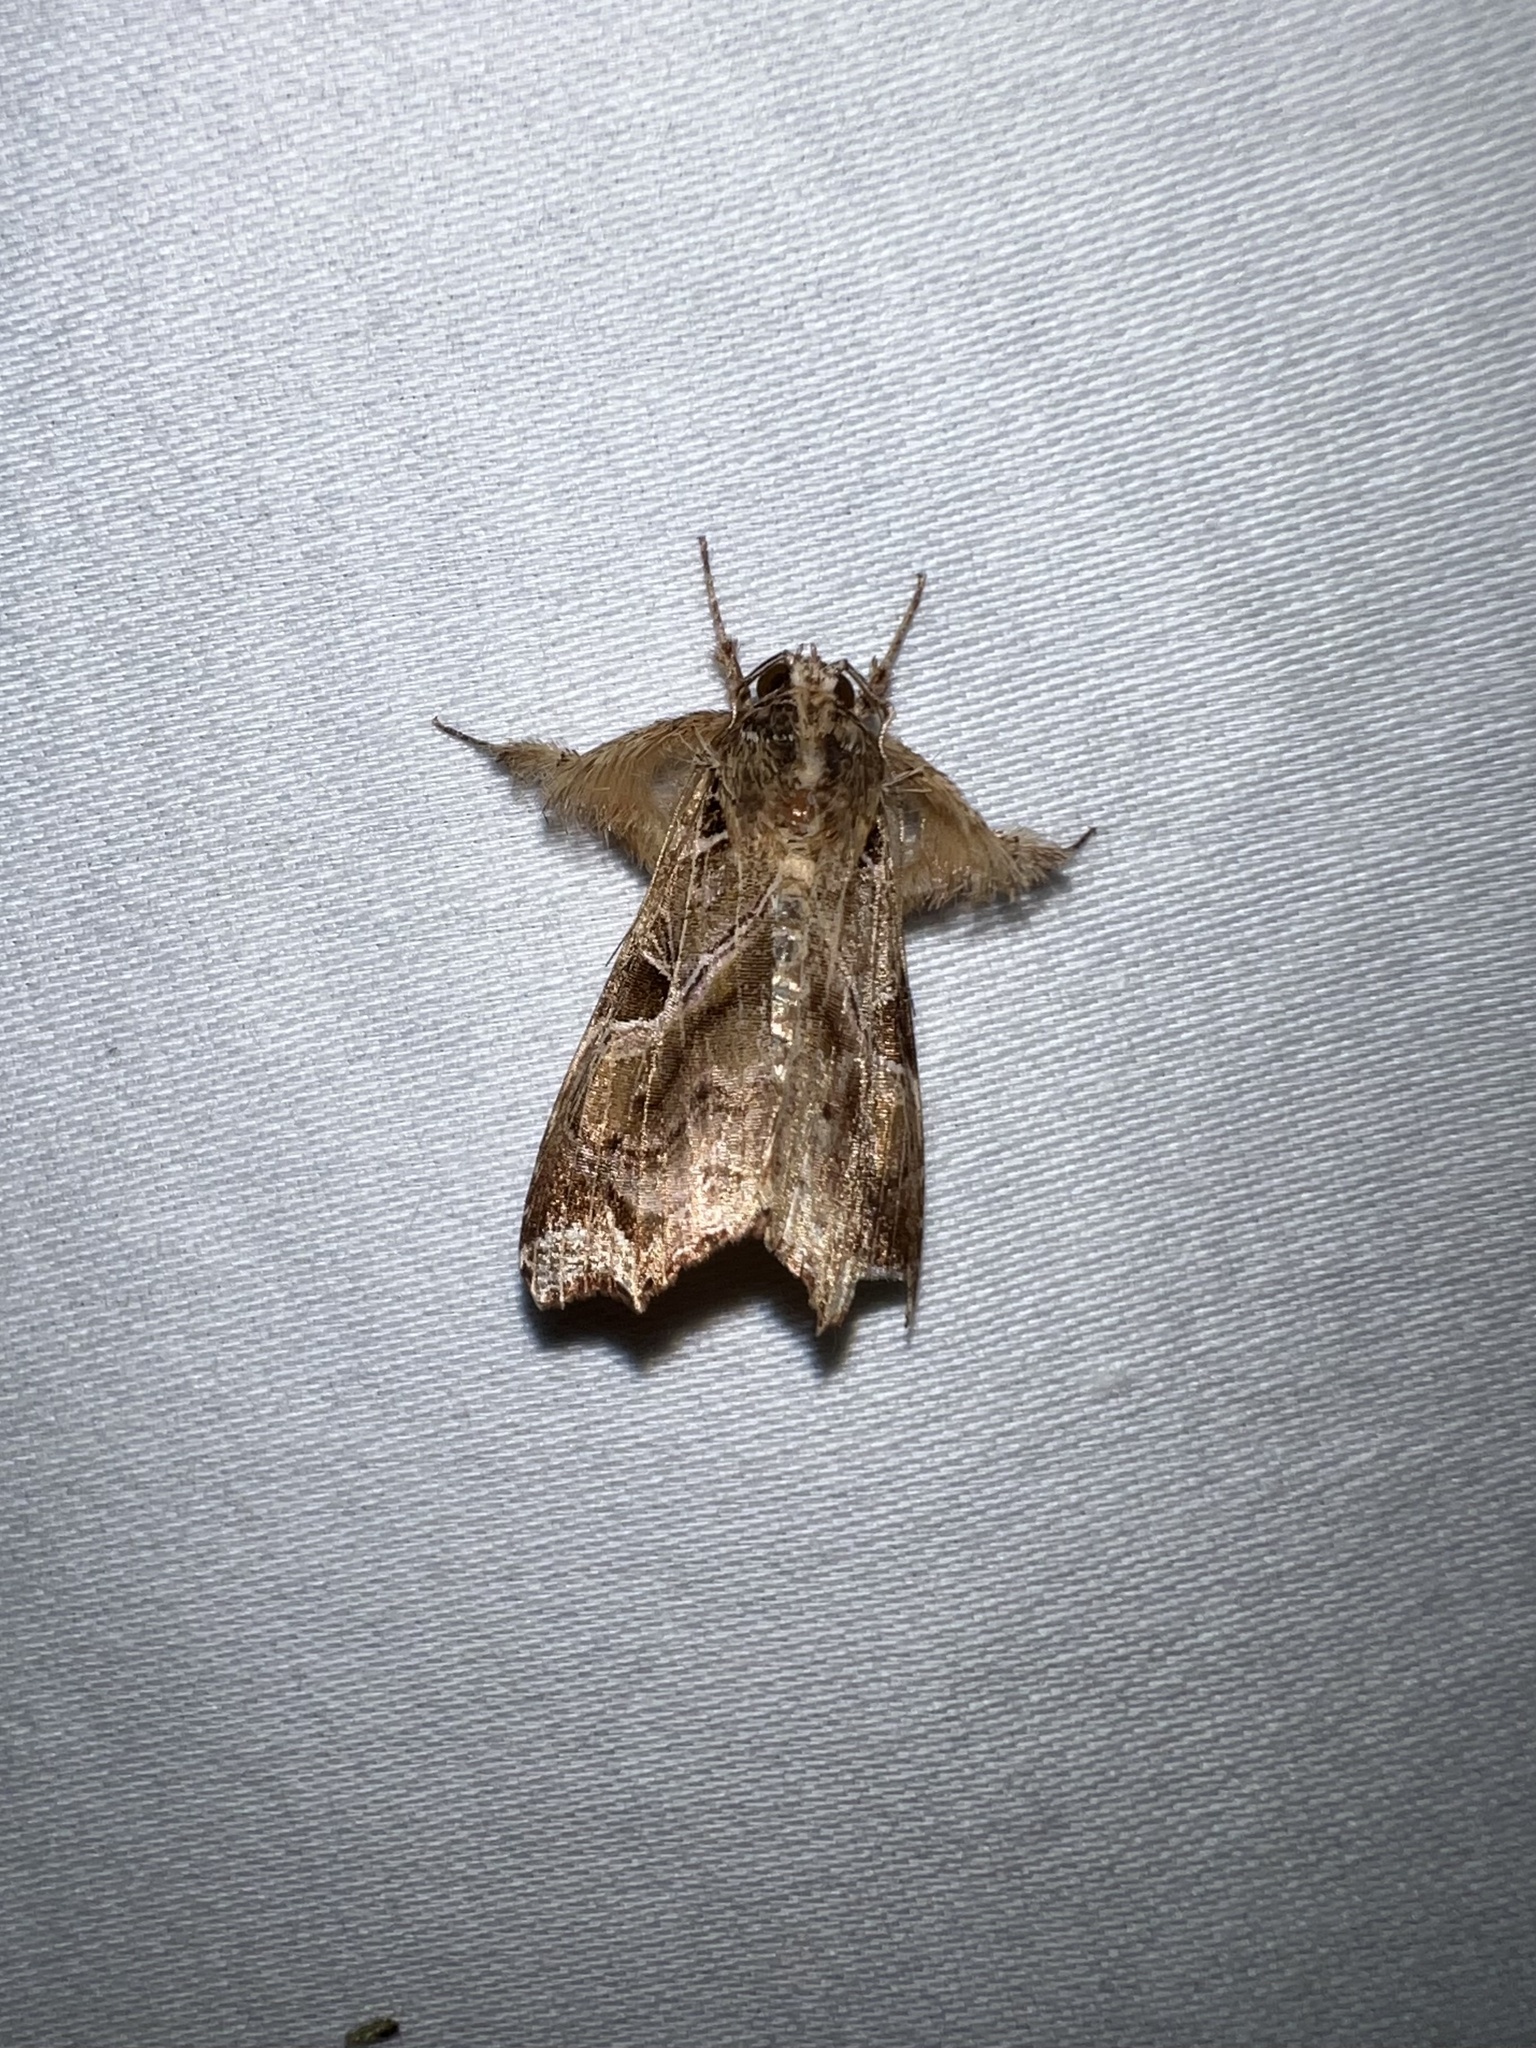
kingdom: Animalia
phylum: Arthropoda
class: Insecta
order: Lepidoptera
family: Noctuidae
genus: Callopistria
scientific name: Callopistria floridensis
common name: Florida fern moth
